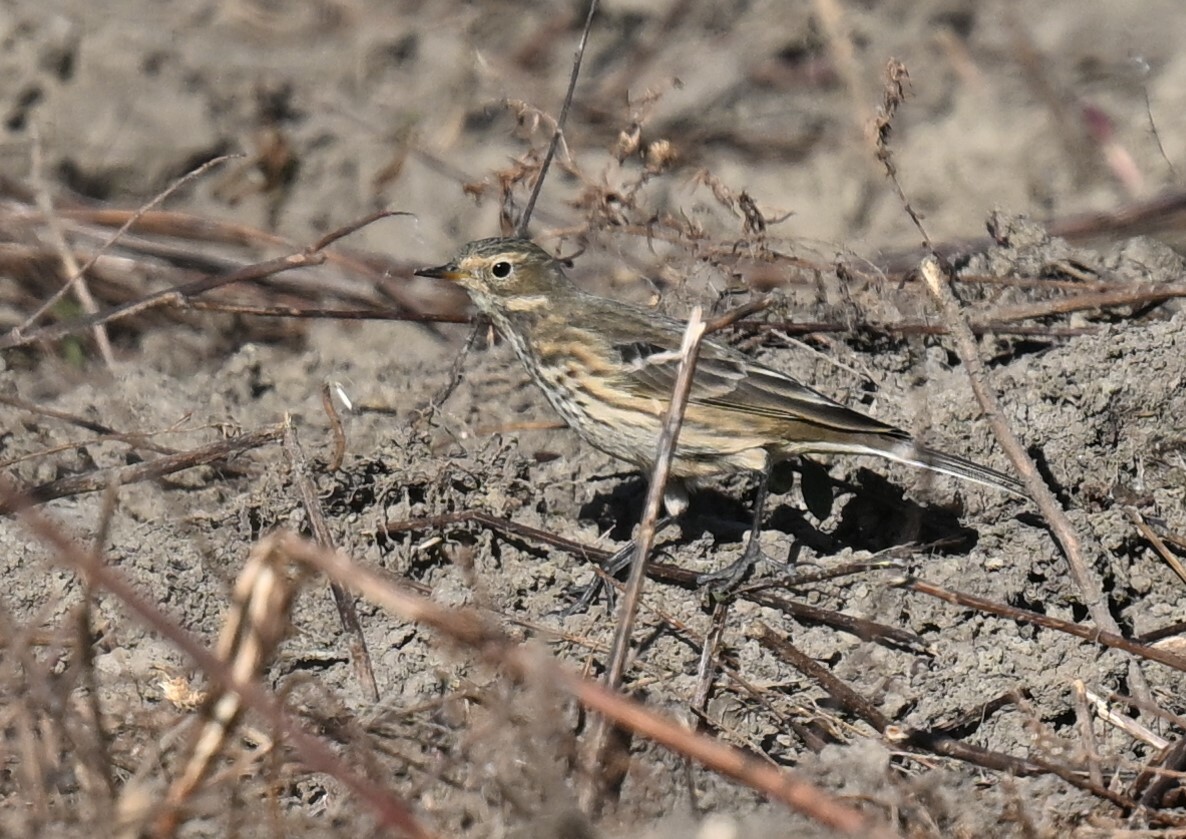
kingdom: Animalia
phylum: Chordata
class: Aves
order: Passeriformes
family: Motacillidae
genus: Anthus
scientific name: Anthus rubescens
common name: Buff-bellied pipit
